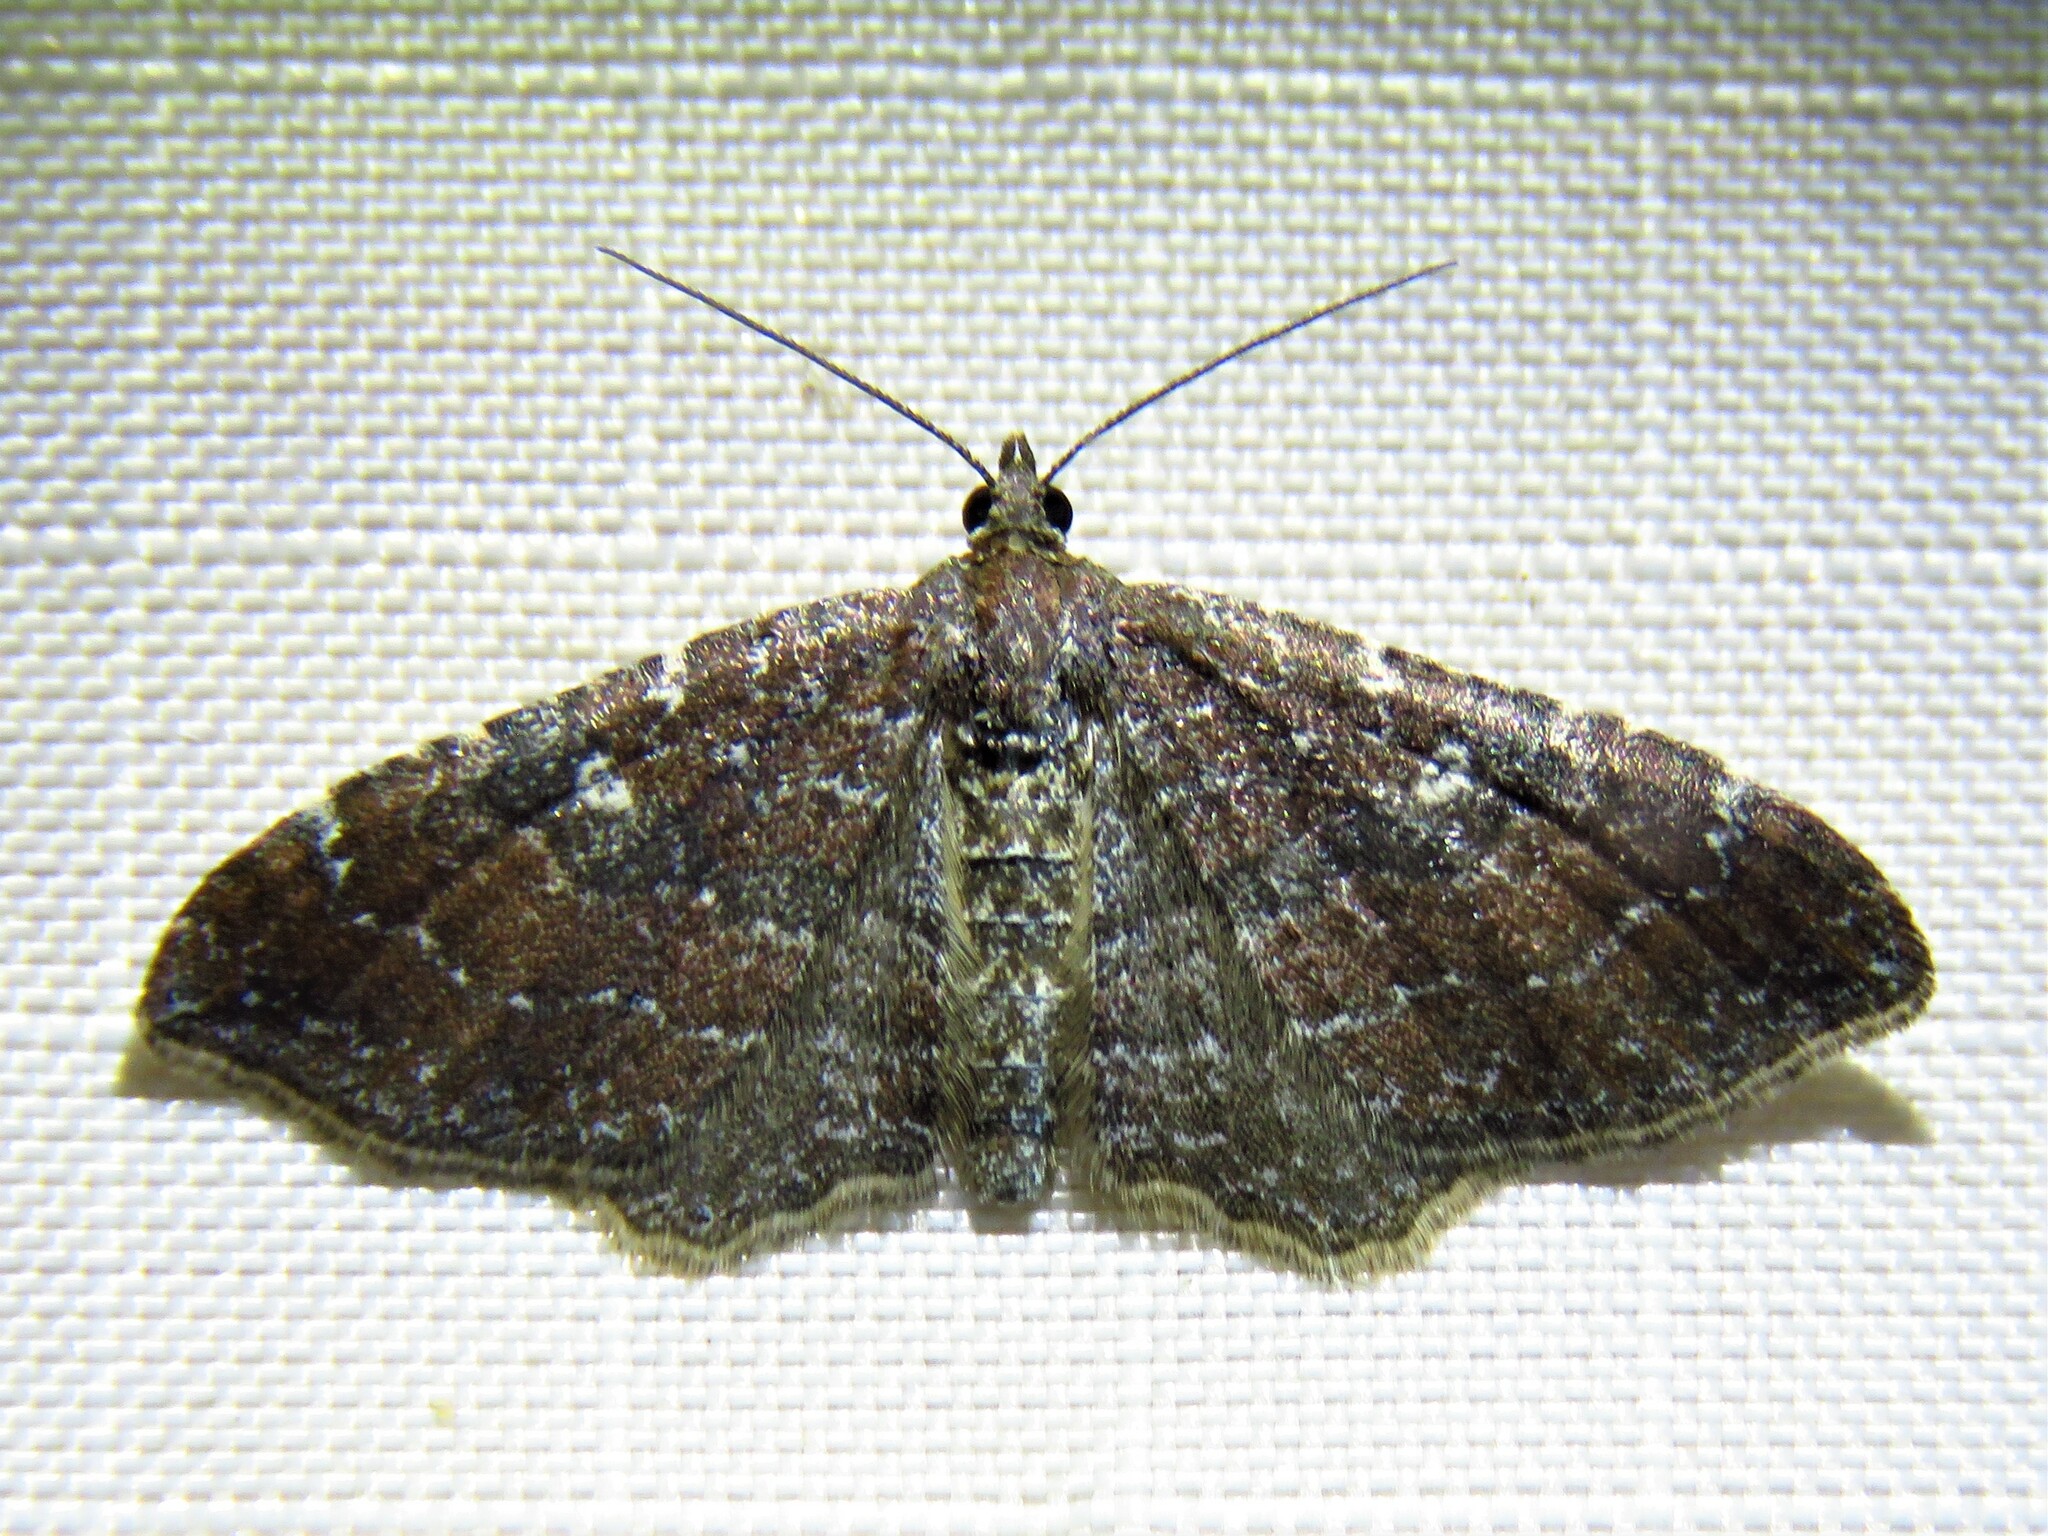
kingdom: Animalia
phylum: Arthropoda
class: Insecta
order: Lepidoptera
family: Geometridae
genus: Orthonama
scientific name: Orthonama obstipata
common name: The gem
